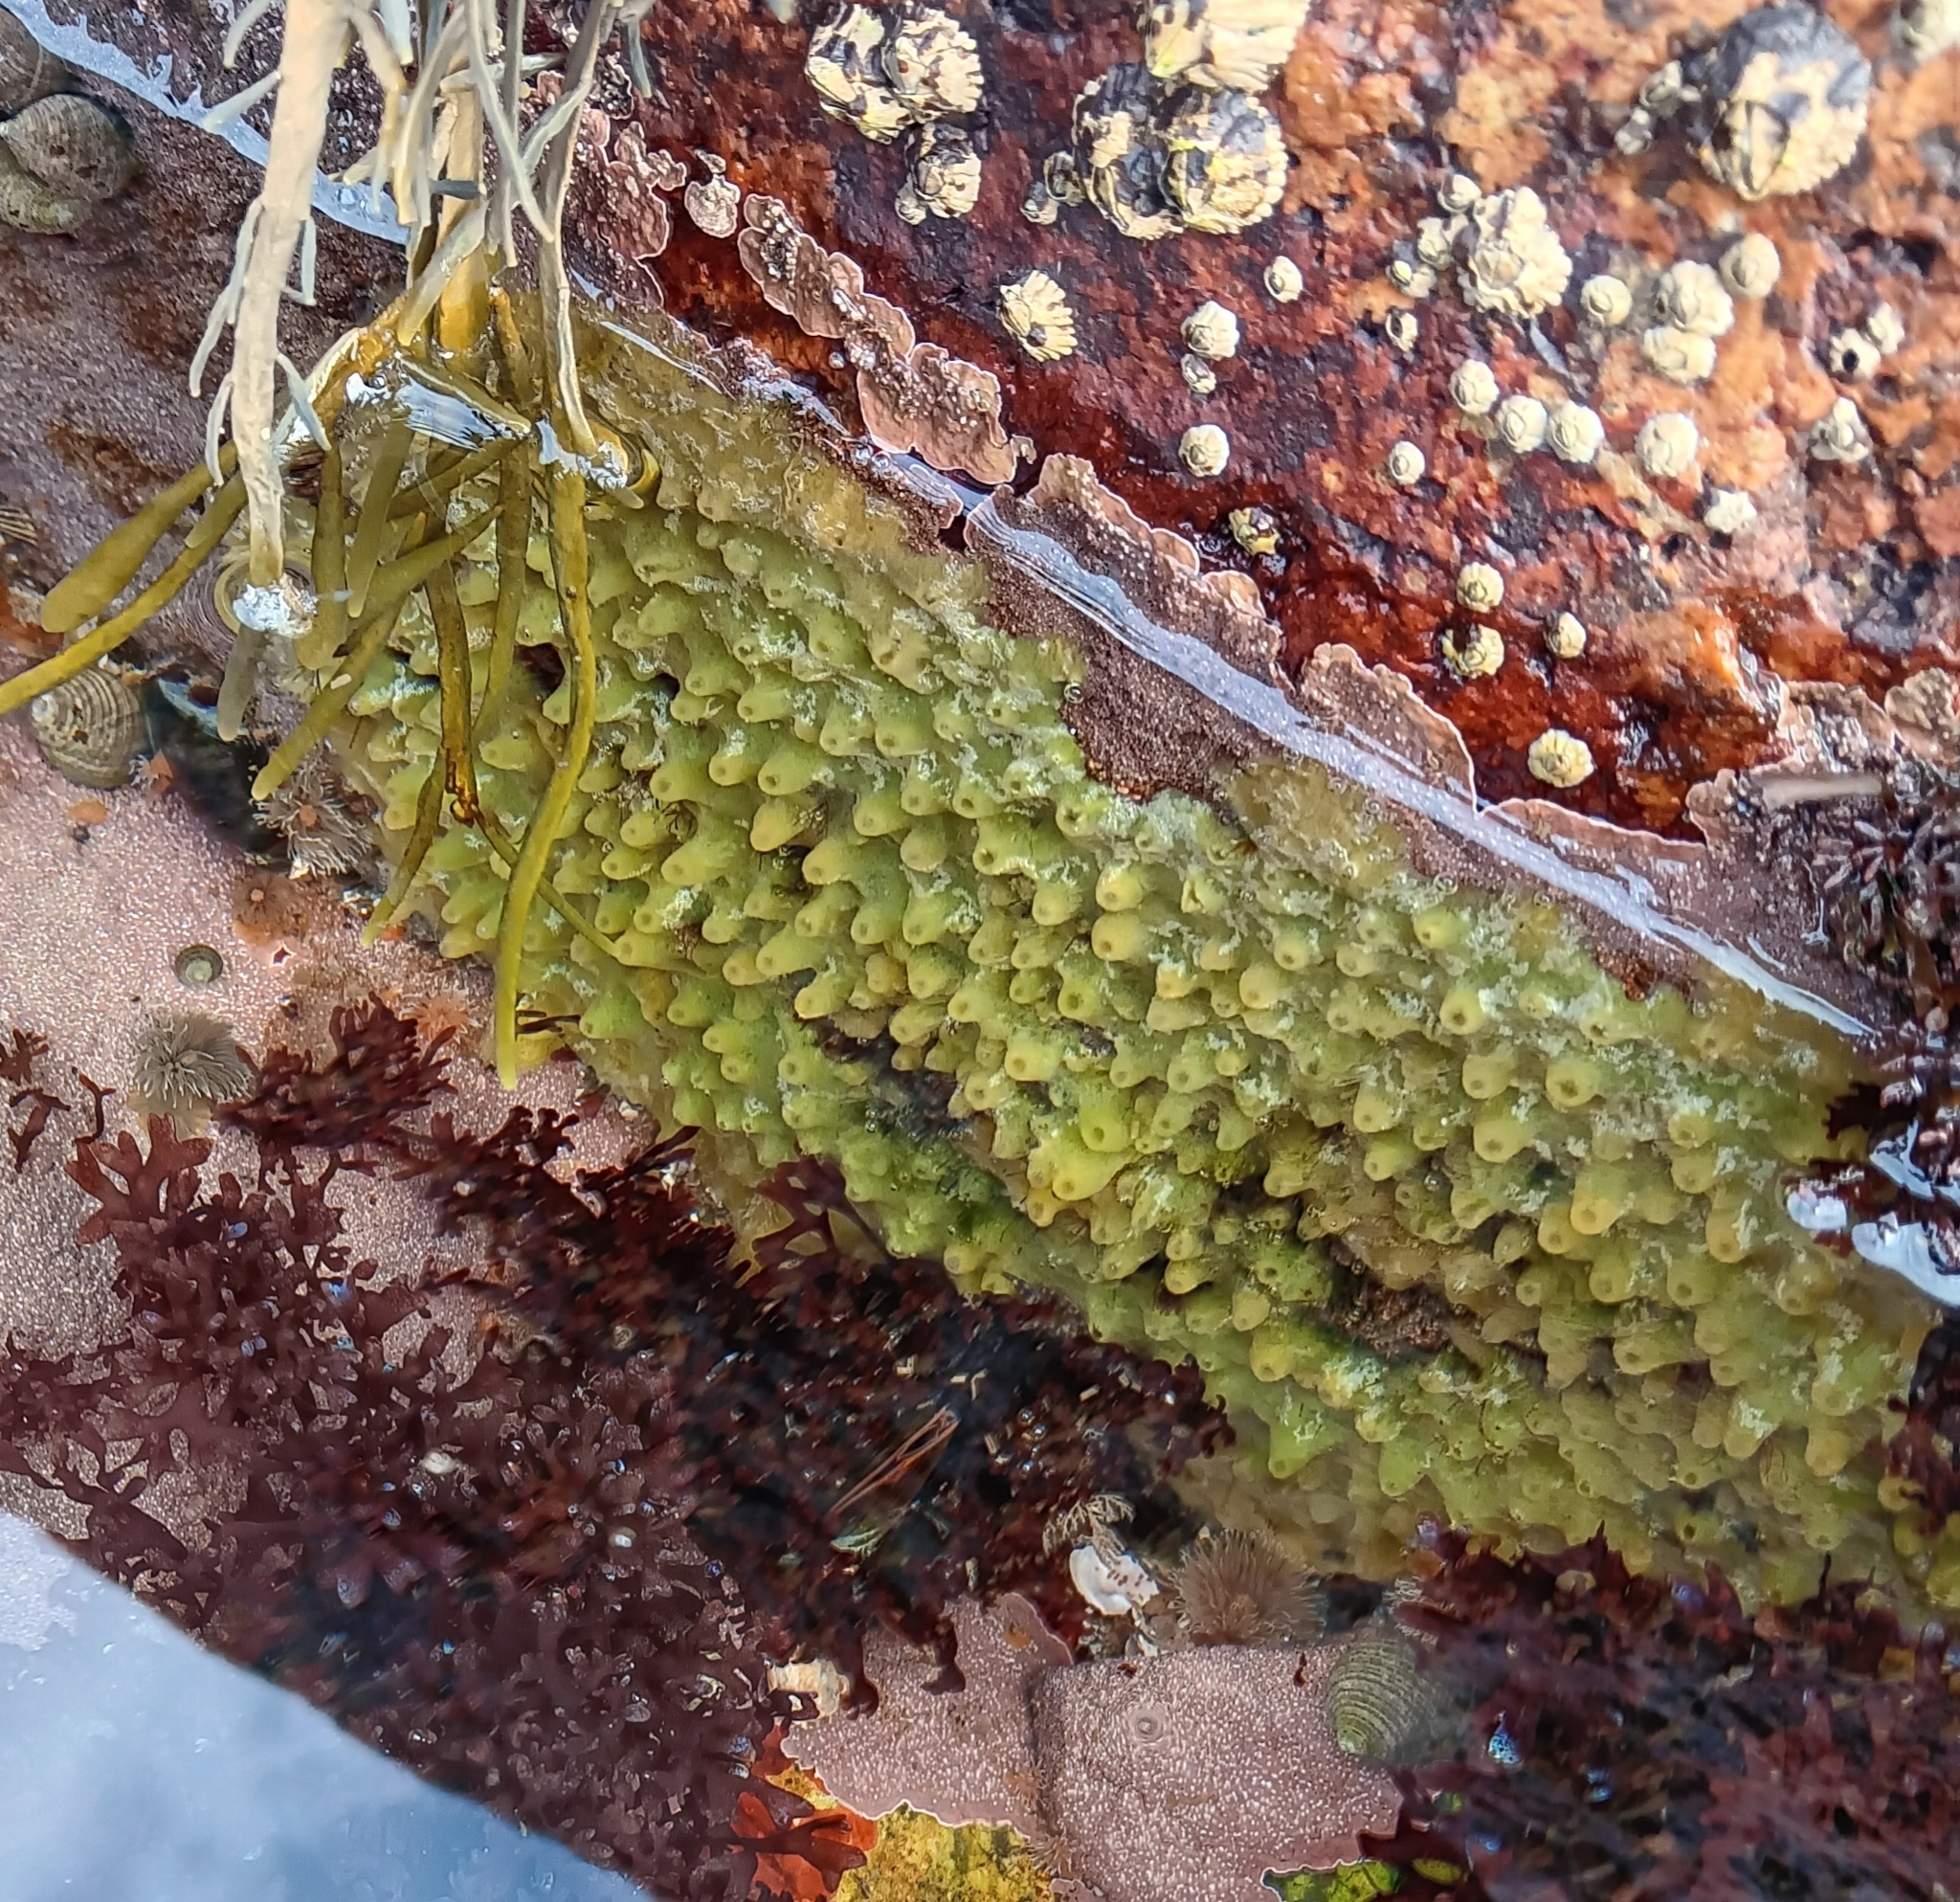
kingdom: Animalia
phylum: Porifera
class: Demospongiae
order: Suberitida
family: Halichondriidae
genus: Halichondria
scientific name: Halichondria panicea
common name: Breadcrumb sponge
